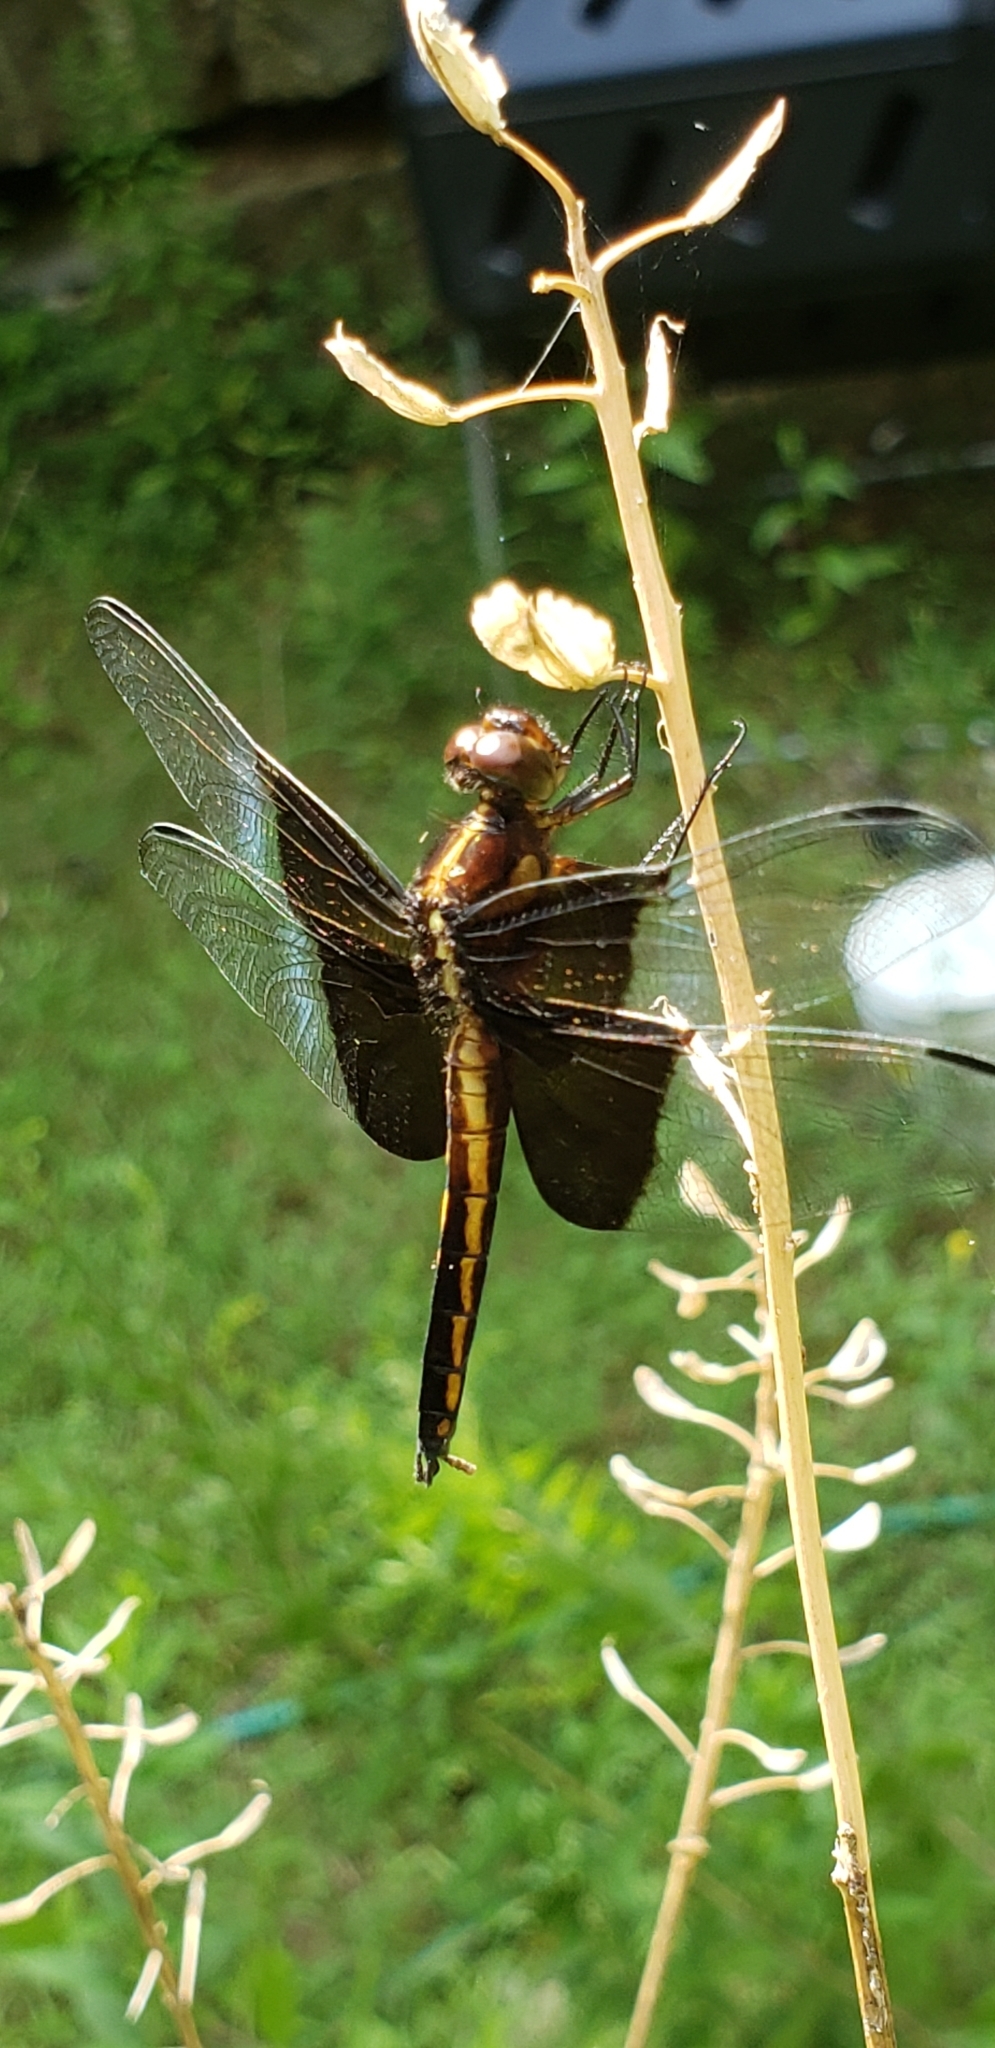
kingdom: Animalia
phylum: Arthropoda
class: Insecta
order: Odonata
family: Libellulidae
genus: Libellula
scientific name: Libellula luctuosa
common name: Widow skimmer
